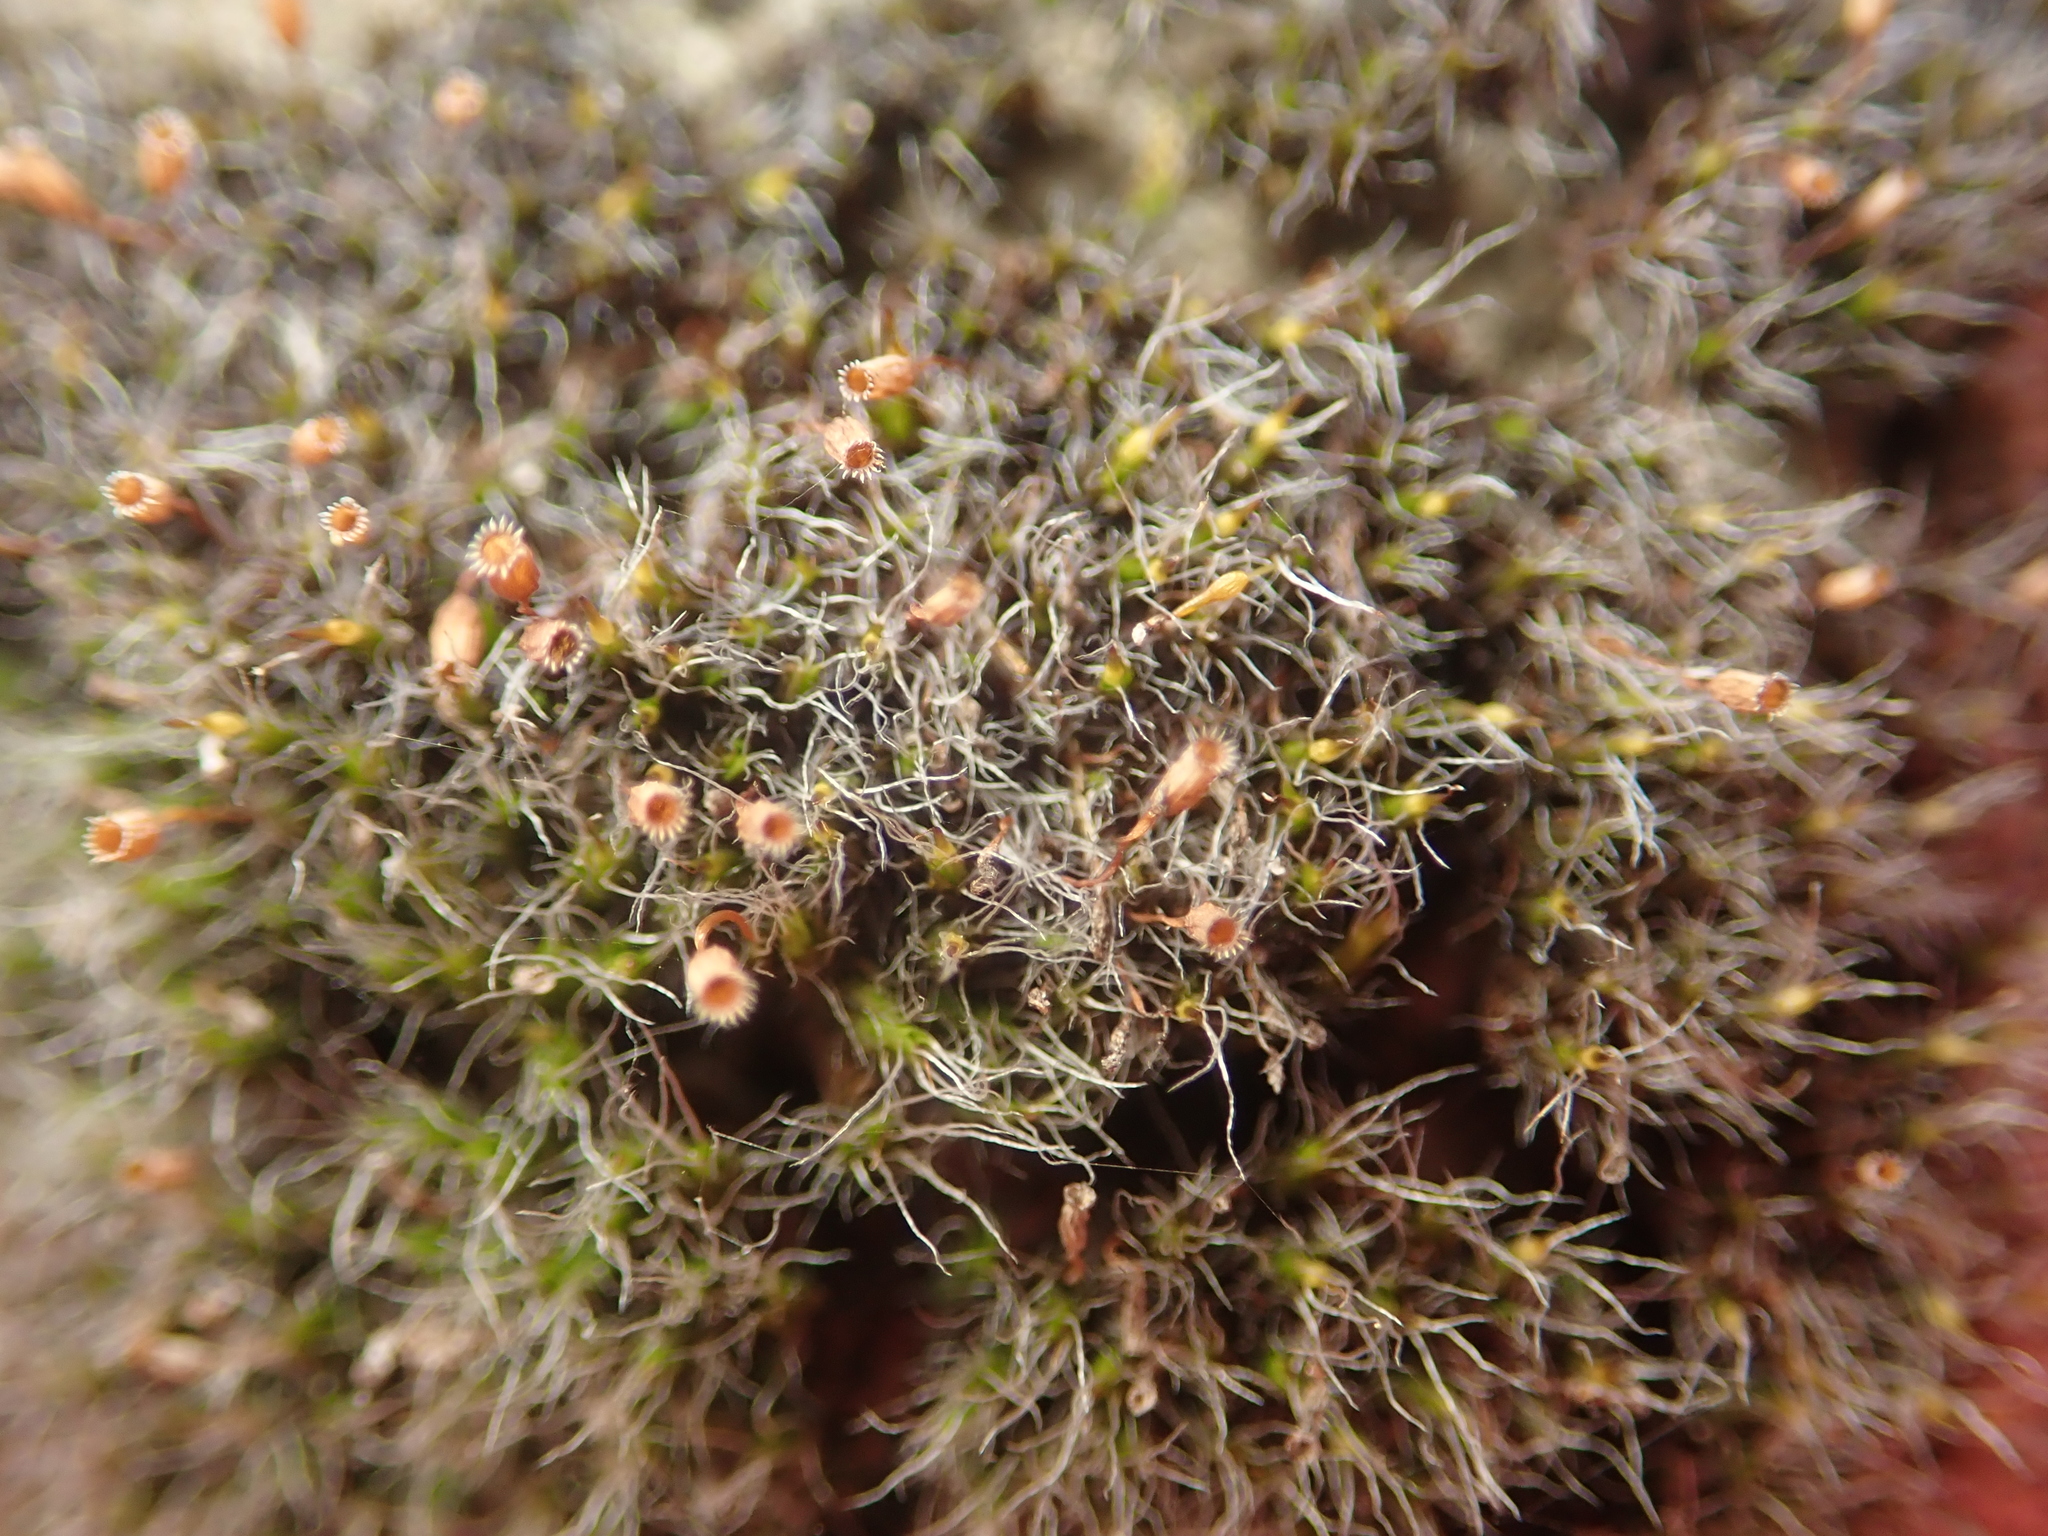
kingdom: Plantae
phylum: Bryophyta
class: Bryopsida
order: Grimmiales
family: Grimmiaceae
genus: Grimmia
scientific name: Grimmia pulvinata
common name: Grey-cushioned grimmia
